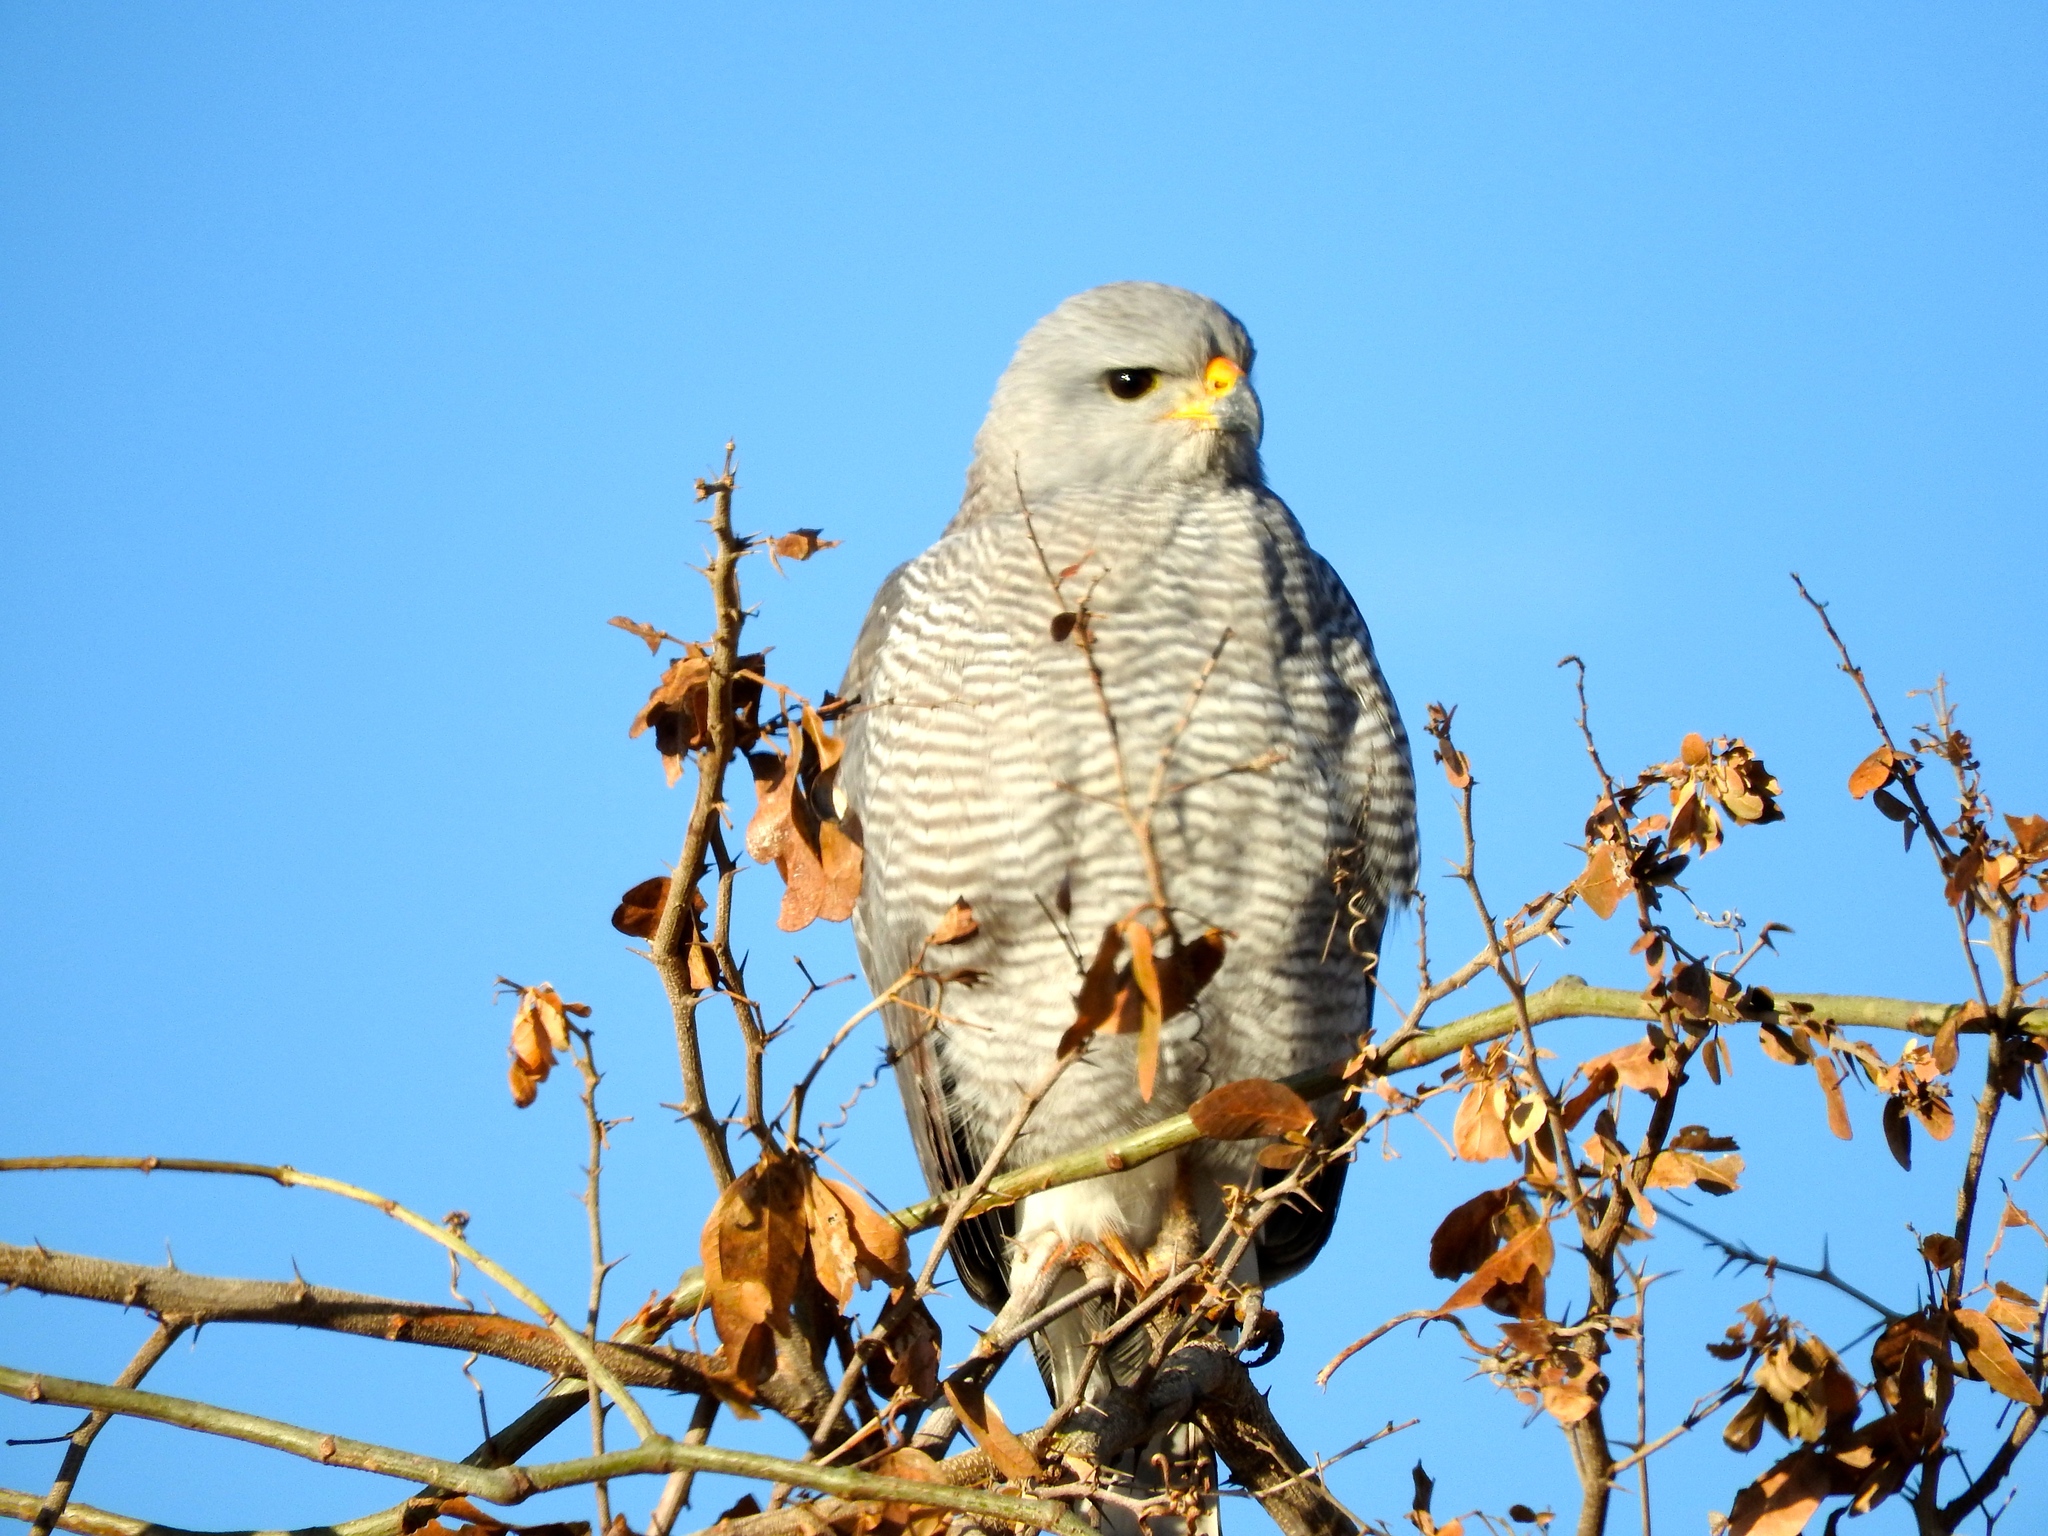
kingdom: Animalia
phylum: Chordata
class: Aves
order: Accipitriformes
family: Accipitridae
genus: Buteo
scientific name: Buteo nitidus
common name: Grey-lined hawk
